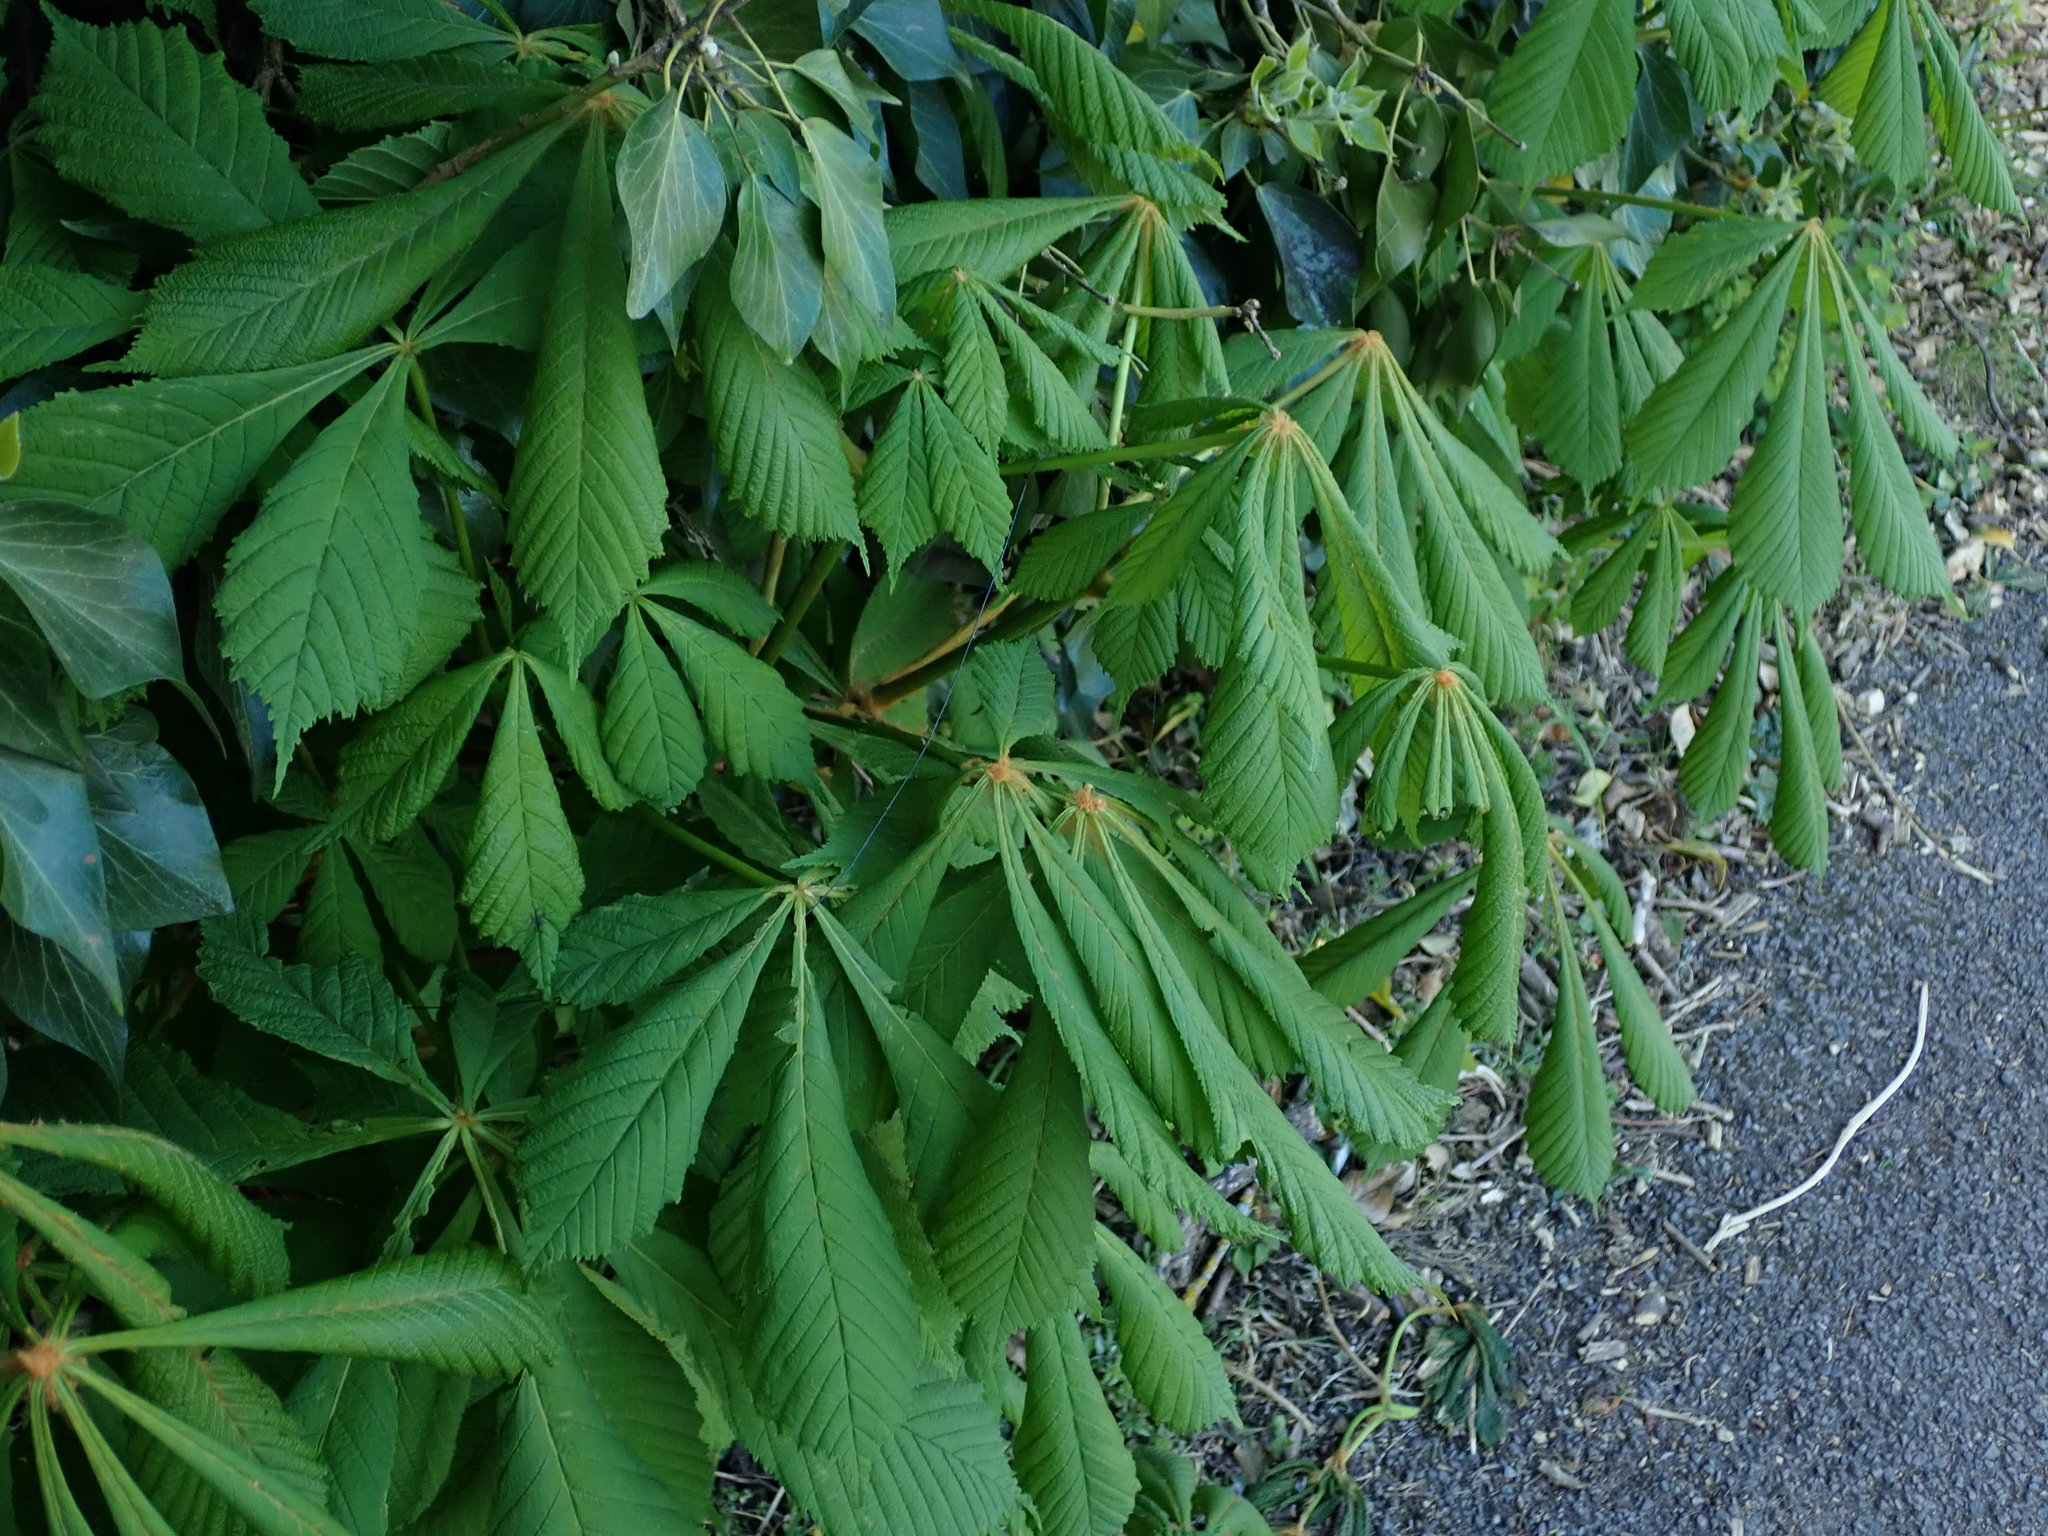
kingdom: Plantae
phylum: Tracheophyta
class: Magnoliopsida
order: Sapindales
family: Sapindaceae
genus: Aesculus
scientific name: Aesculus hippocastanum
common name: Horse-chestnut
